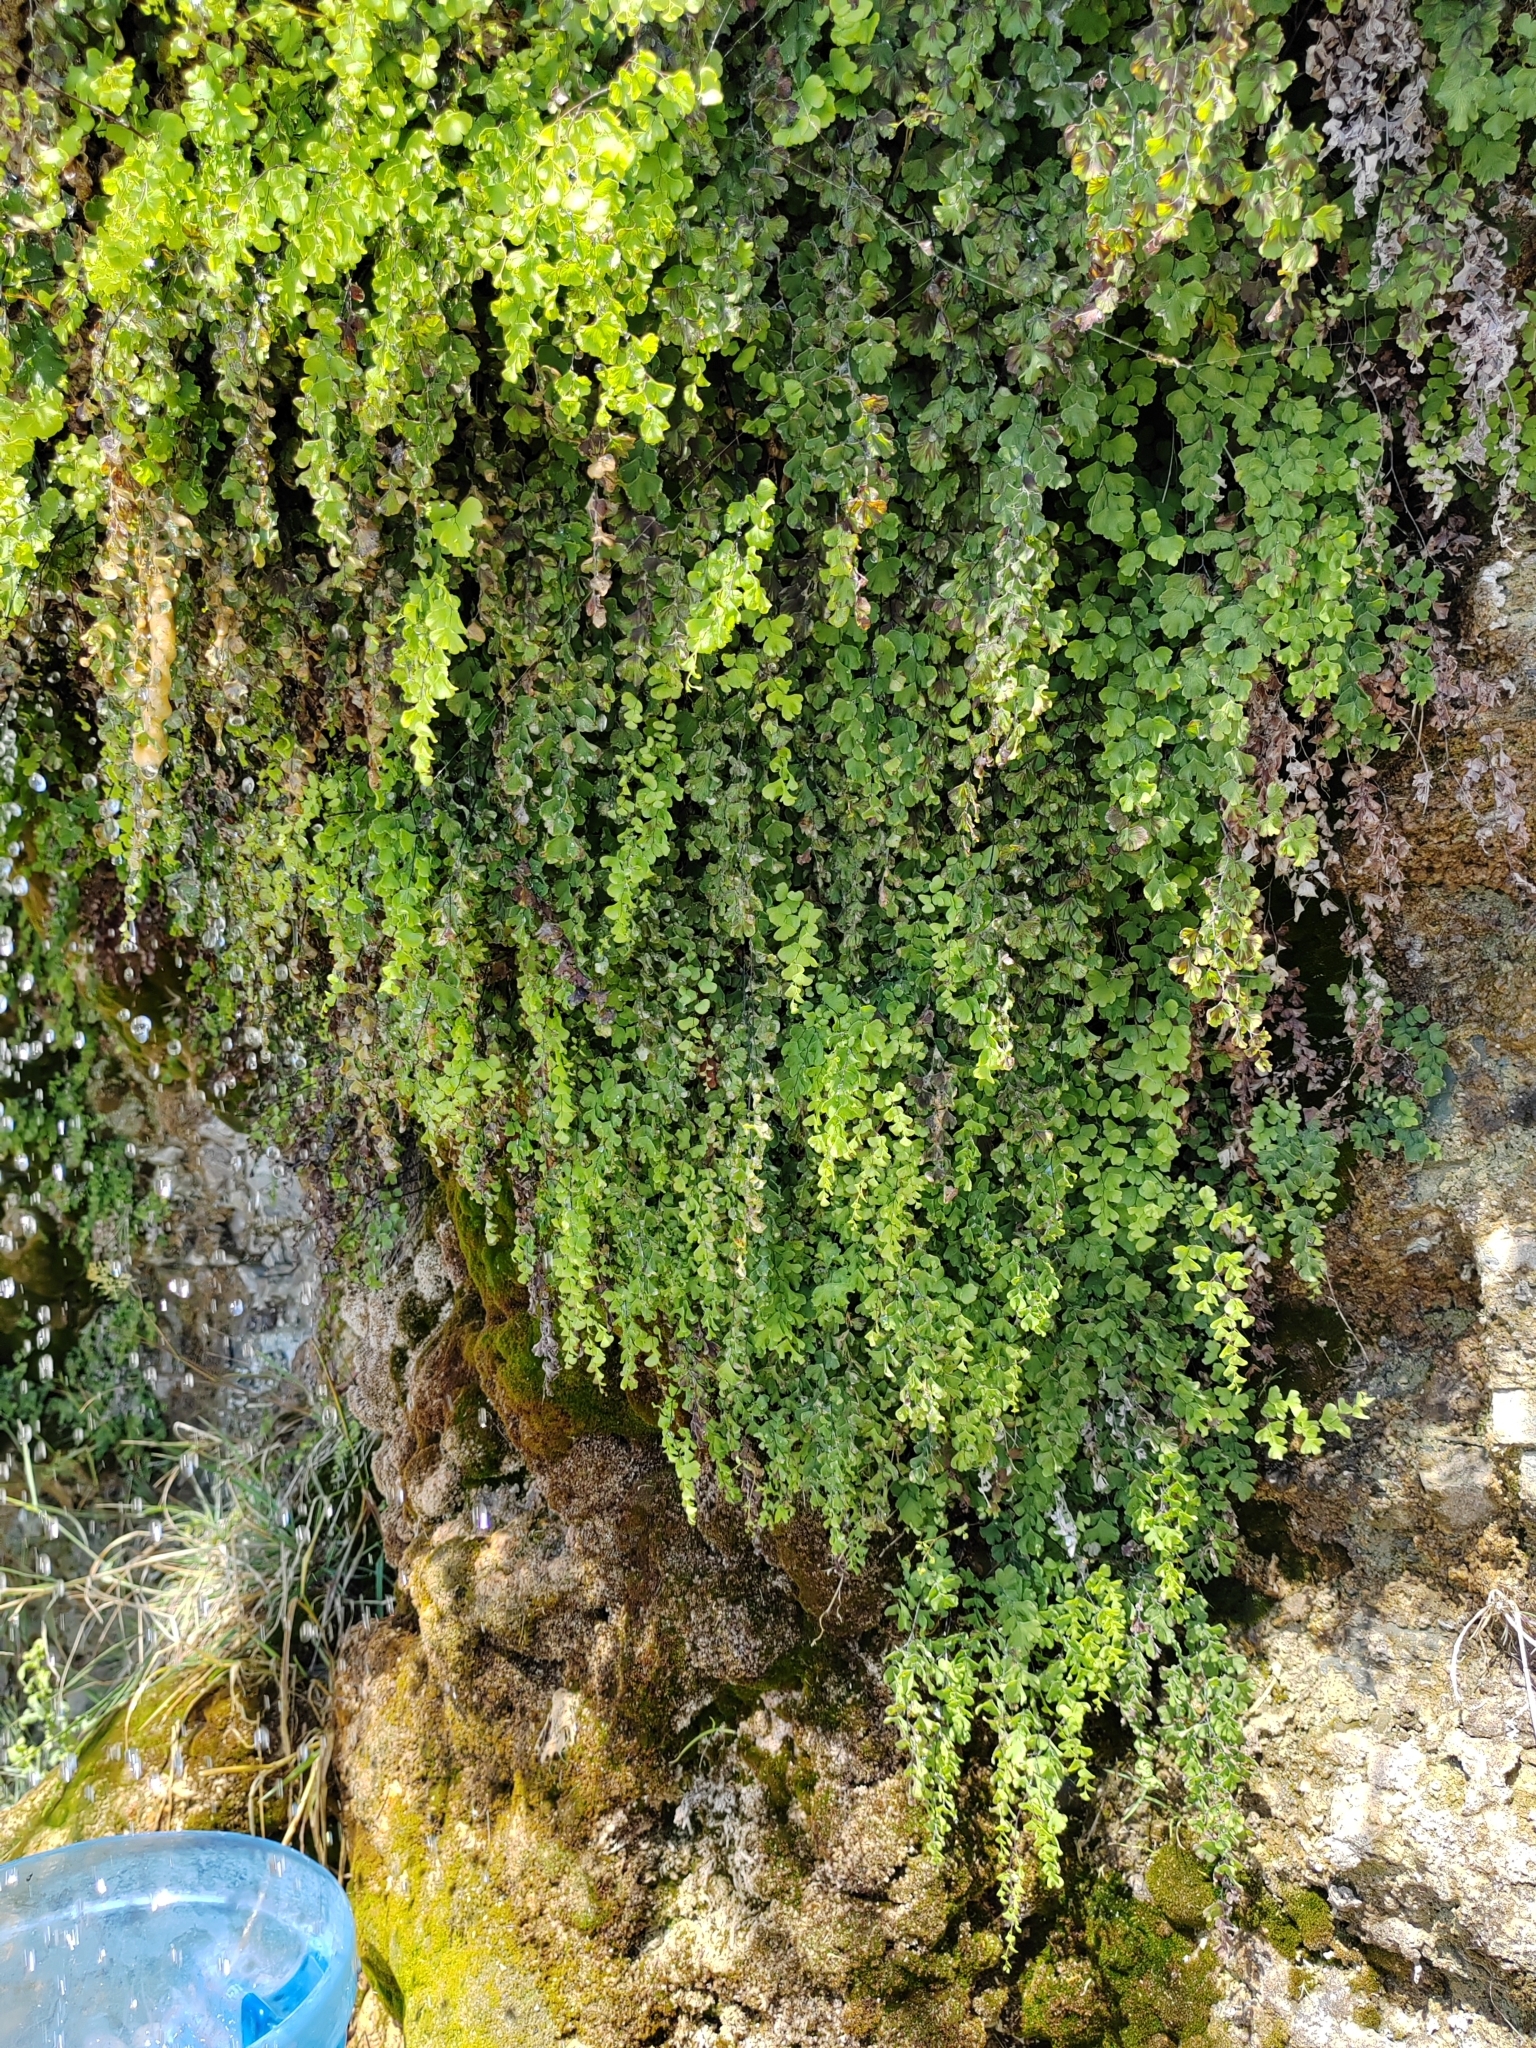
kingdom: Plantae
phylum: Tracheophyta
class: Polypodiopsida
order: Polypodiales
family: Pteridaceae
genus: Adiantum
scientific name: Adiantum capillus-veneris
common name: Maidenhair fern
